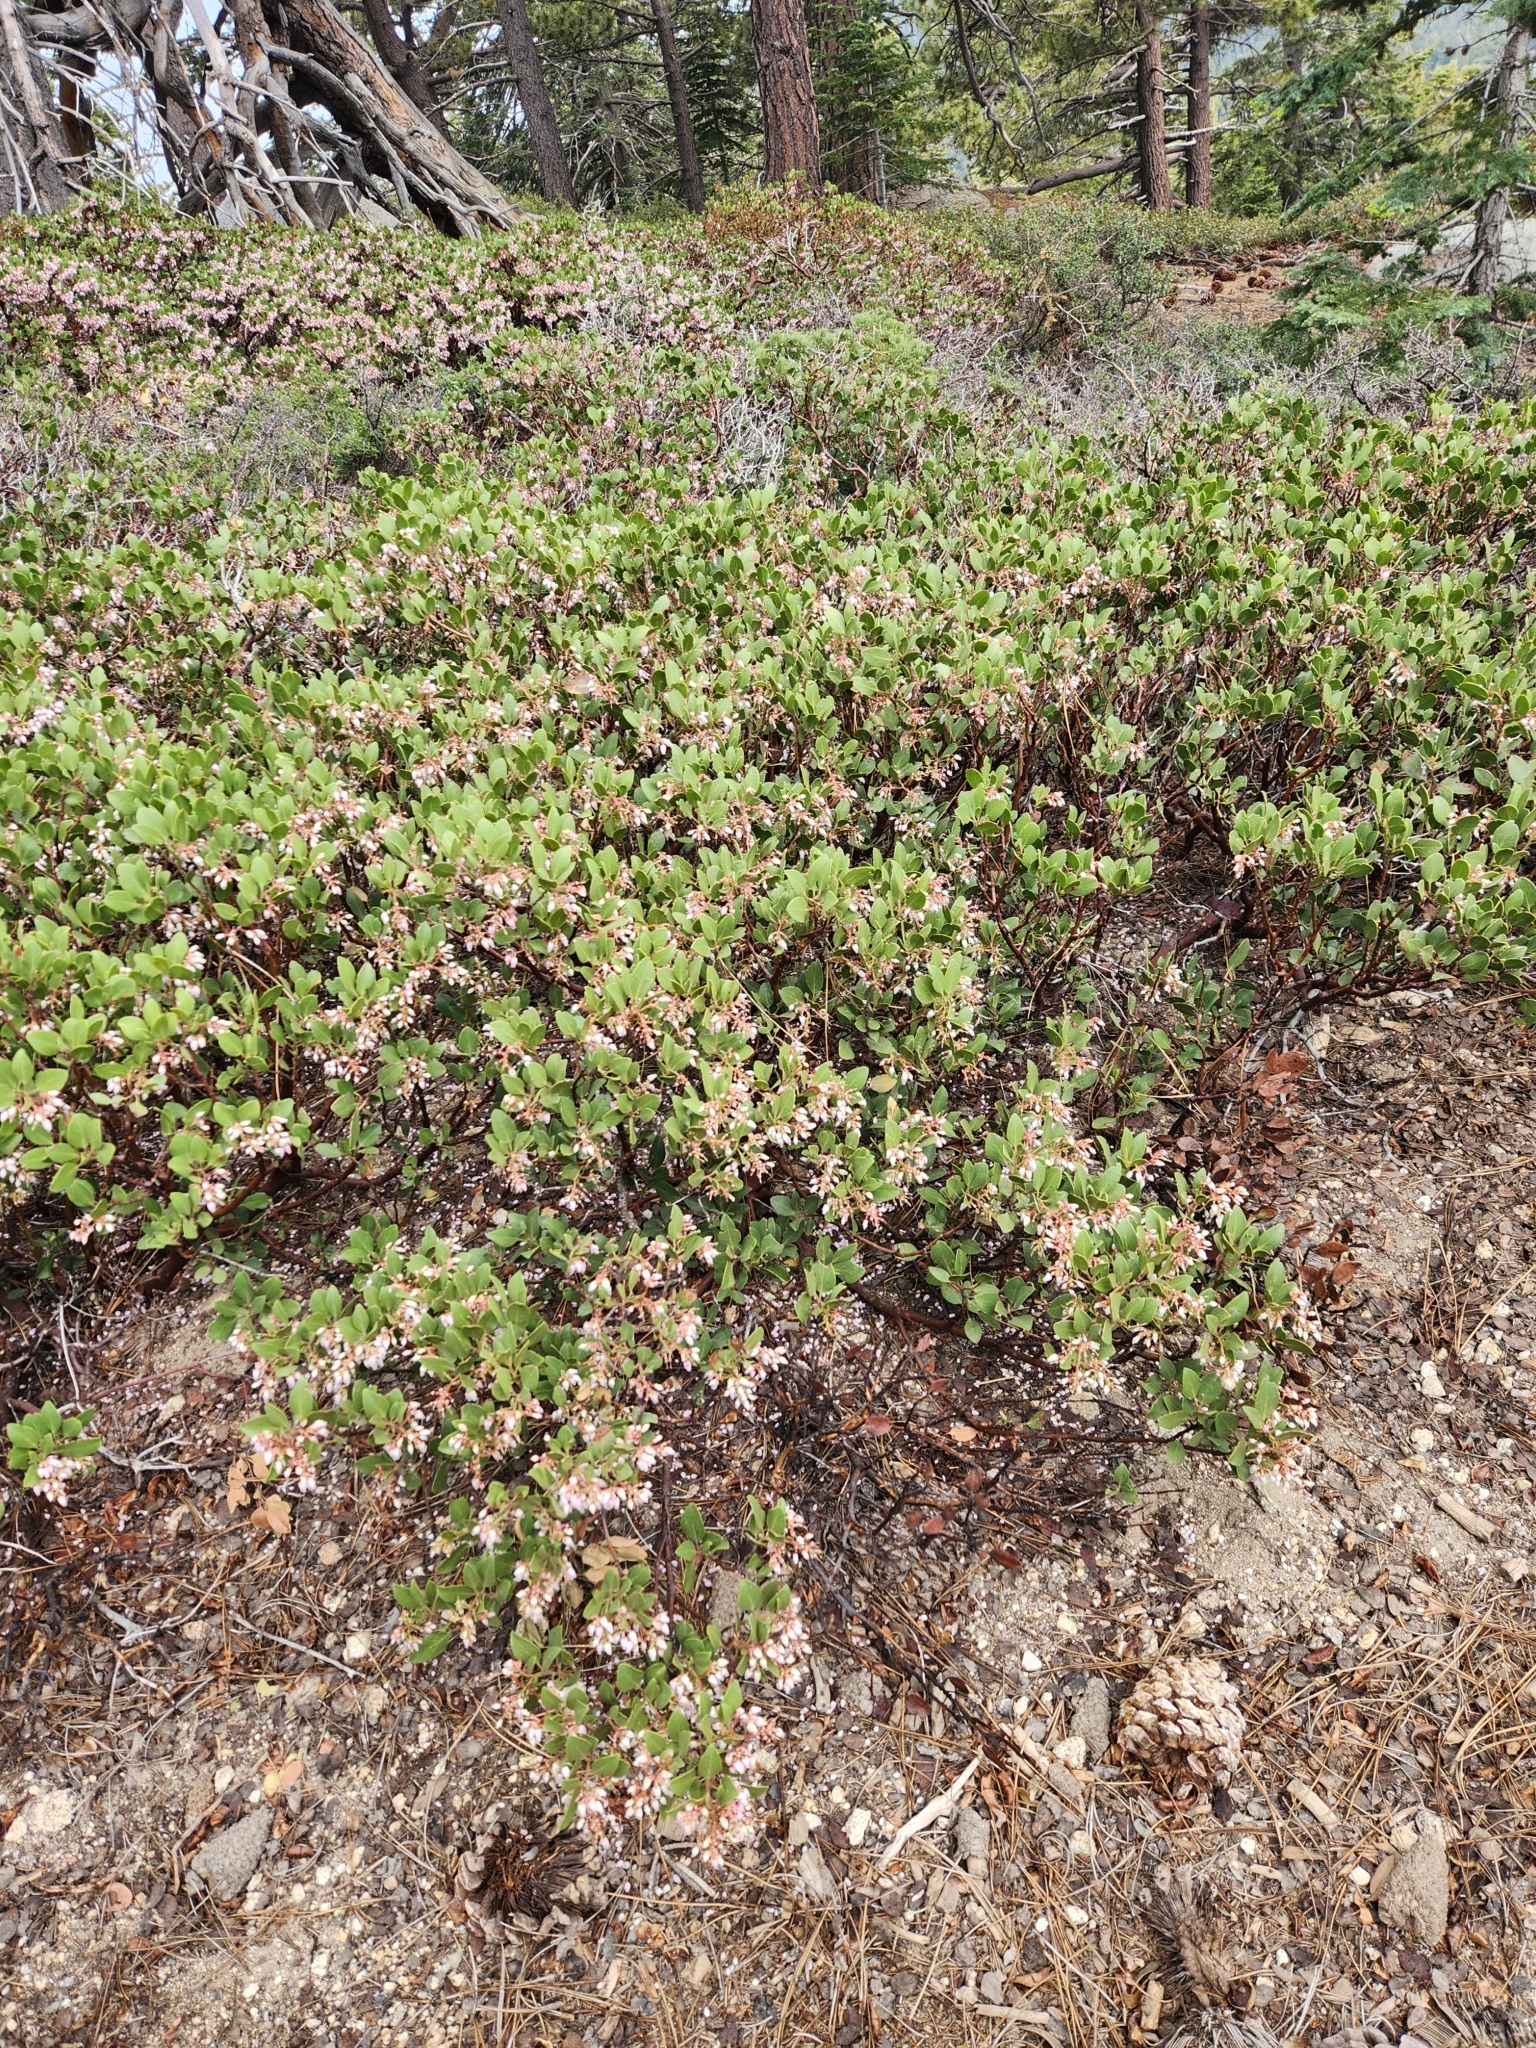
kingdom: Plantae
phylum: Tracheophyta
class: Magnoliopsida
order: Ericales
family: Ericaceae
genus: Arctostaphylos
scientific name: Arctostaphylos patula
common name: Green-leaf manzanita
